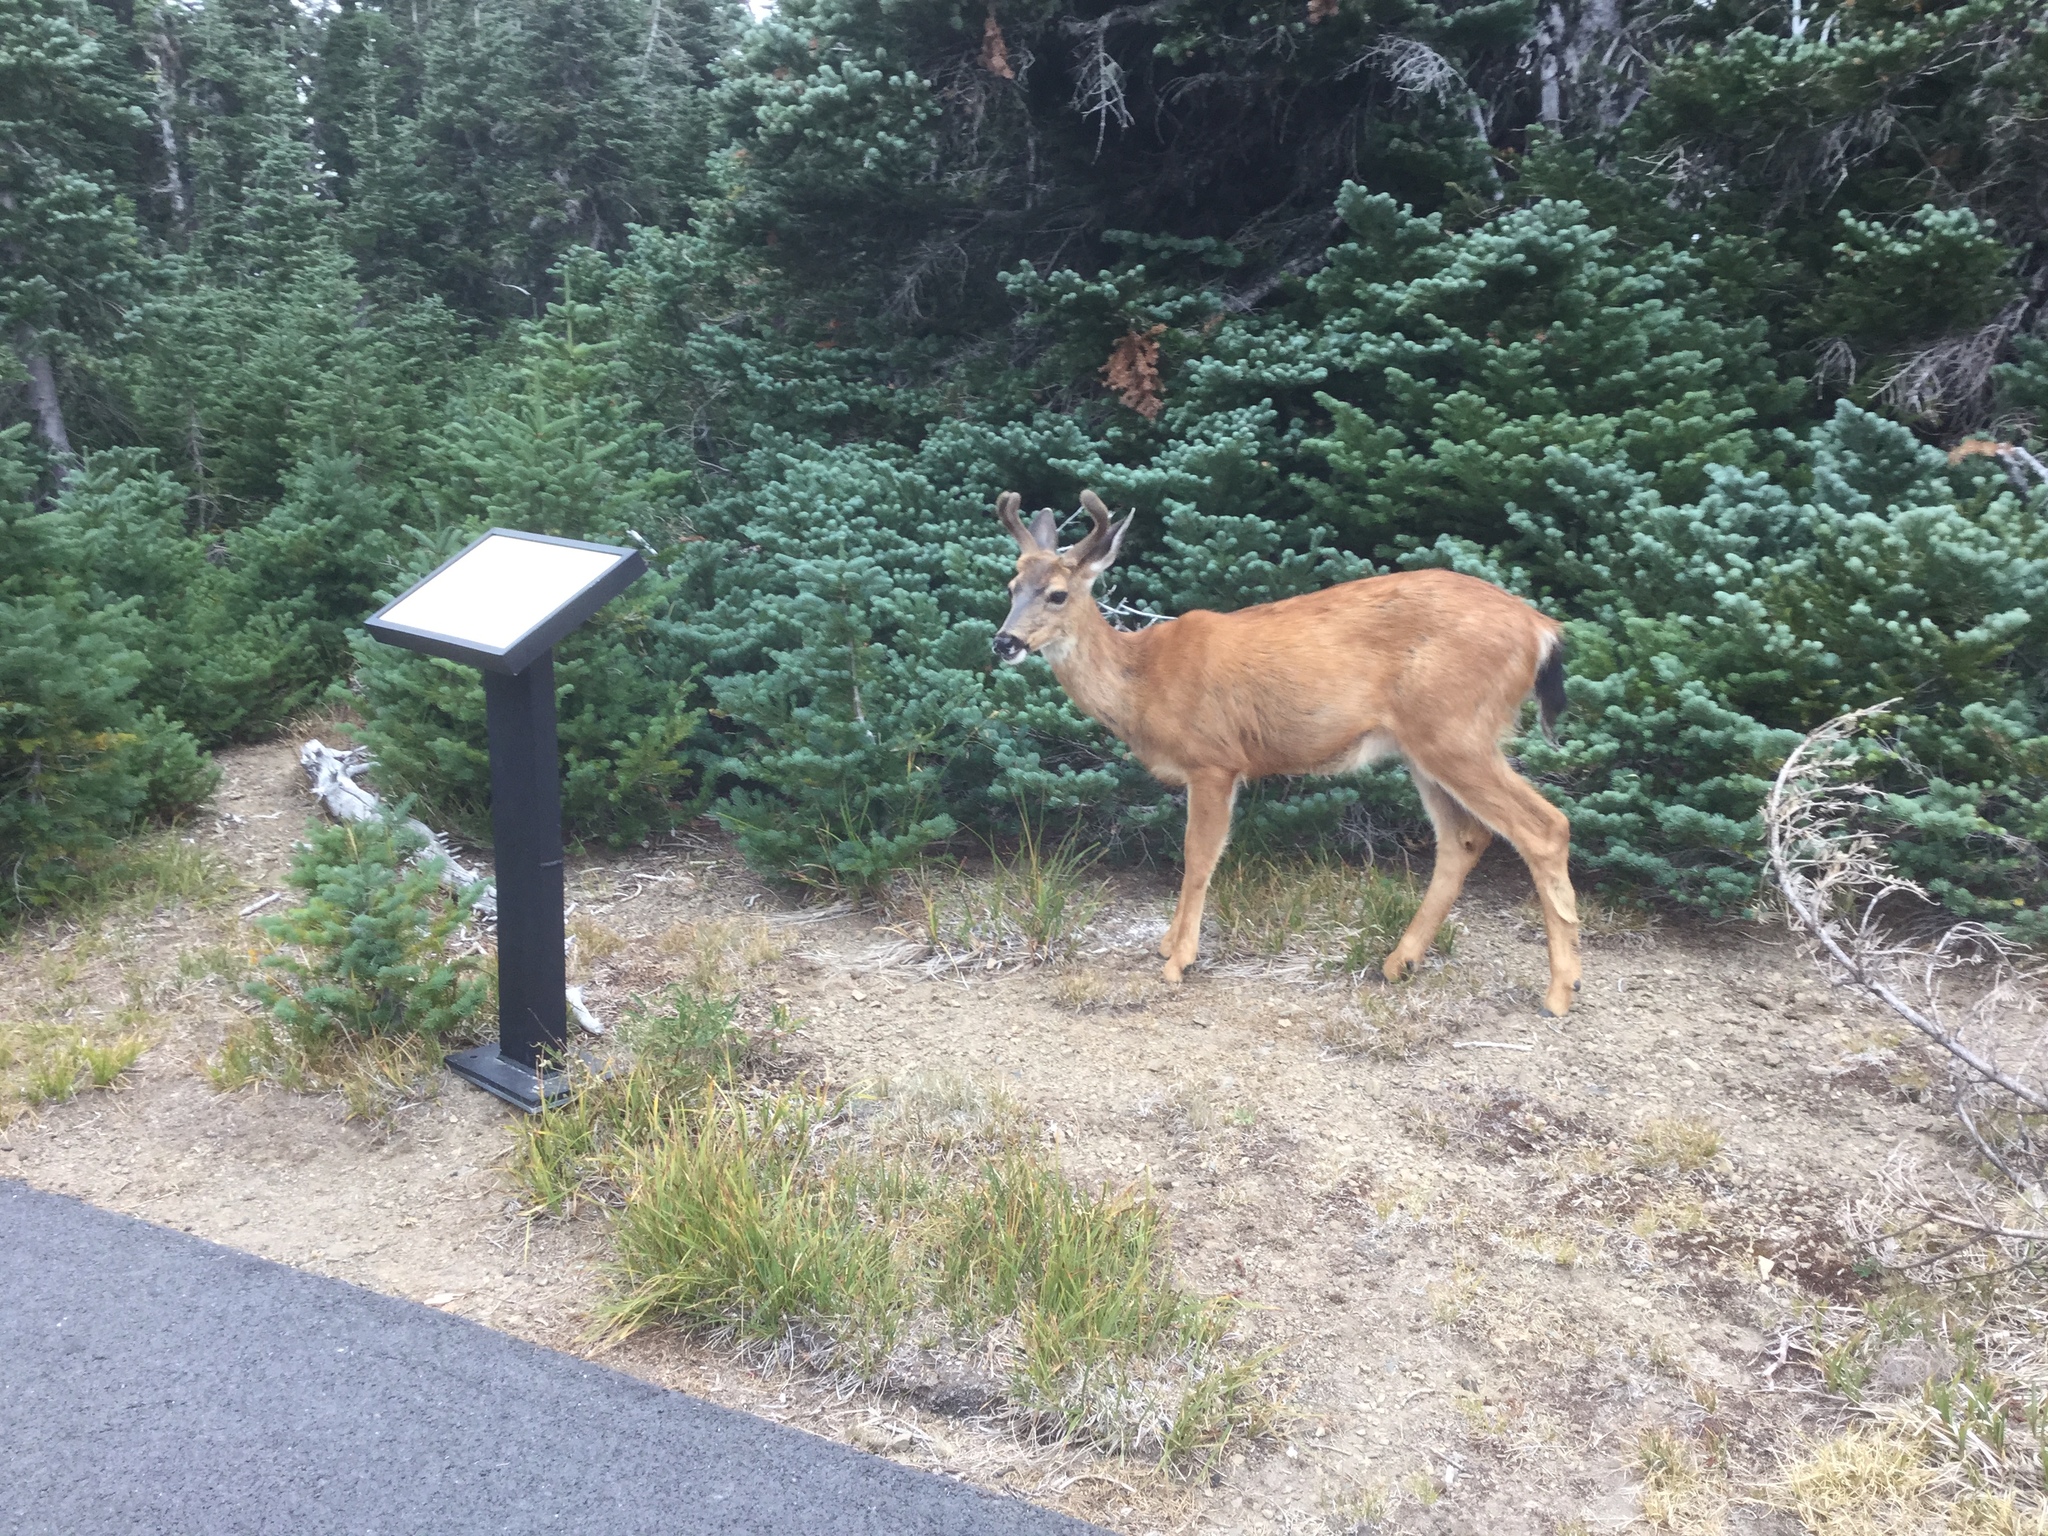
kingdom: Animalia
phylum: Chordata
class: Mammalia
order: Artiodactyla
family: Cervidae
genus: Odocoileus
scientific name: Odocoileus hemionus
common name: Mule deer
